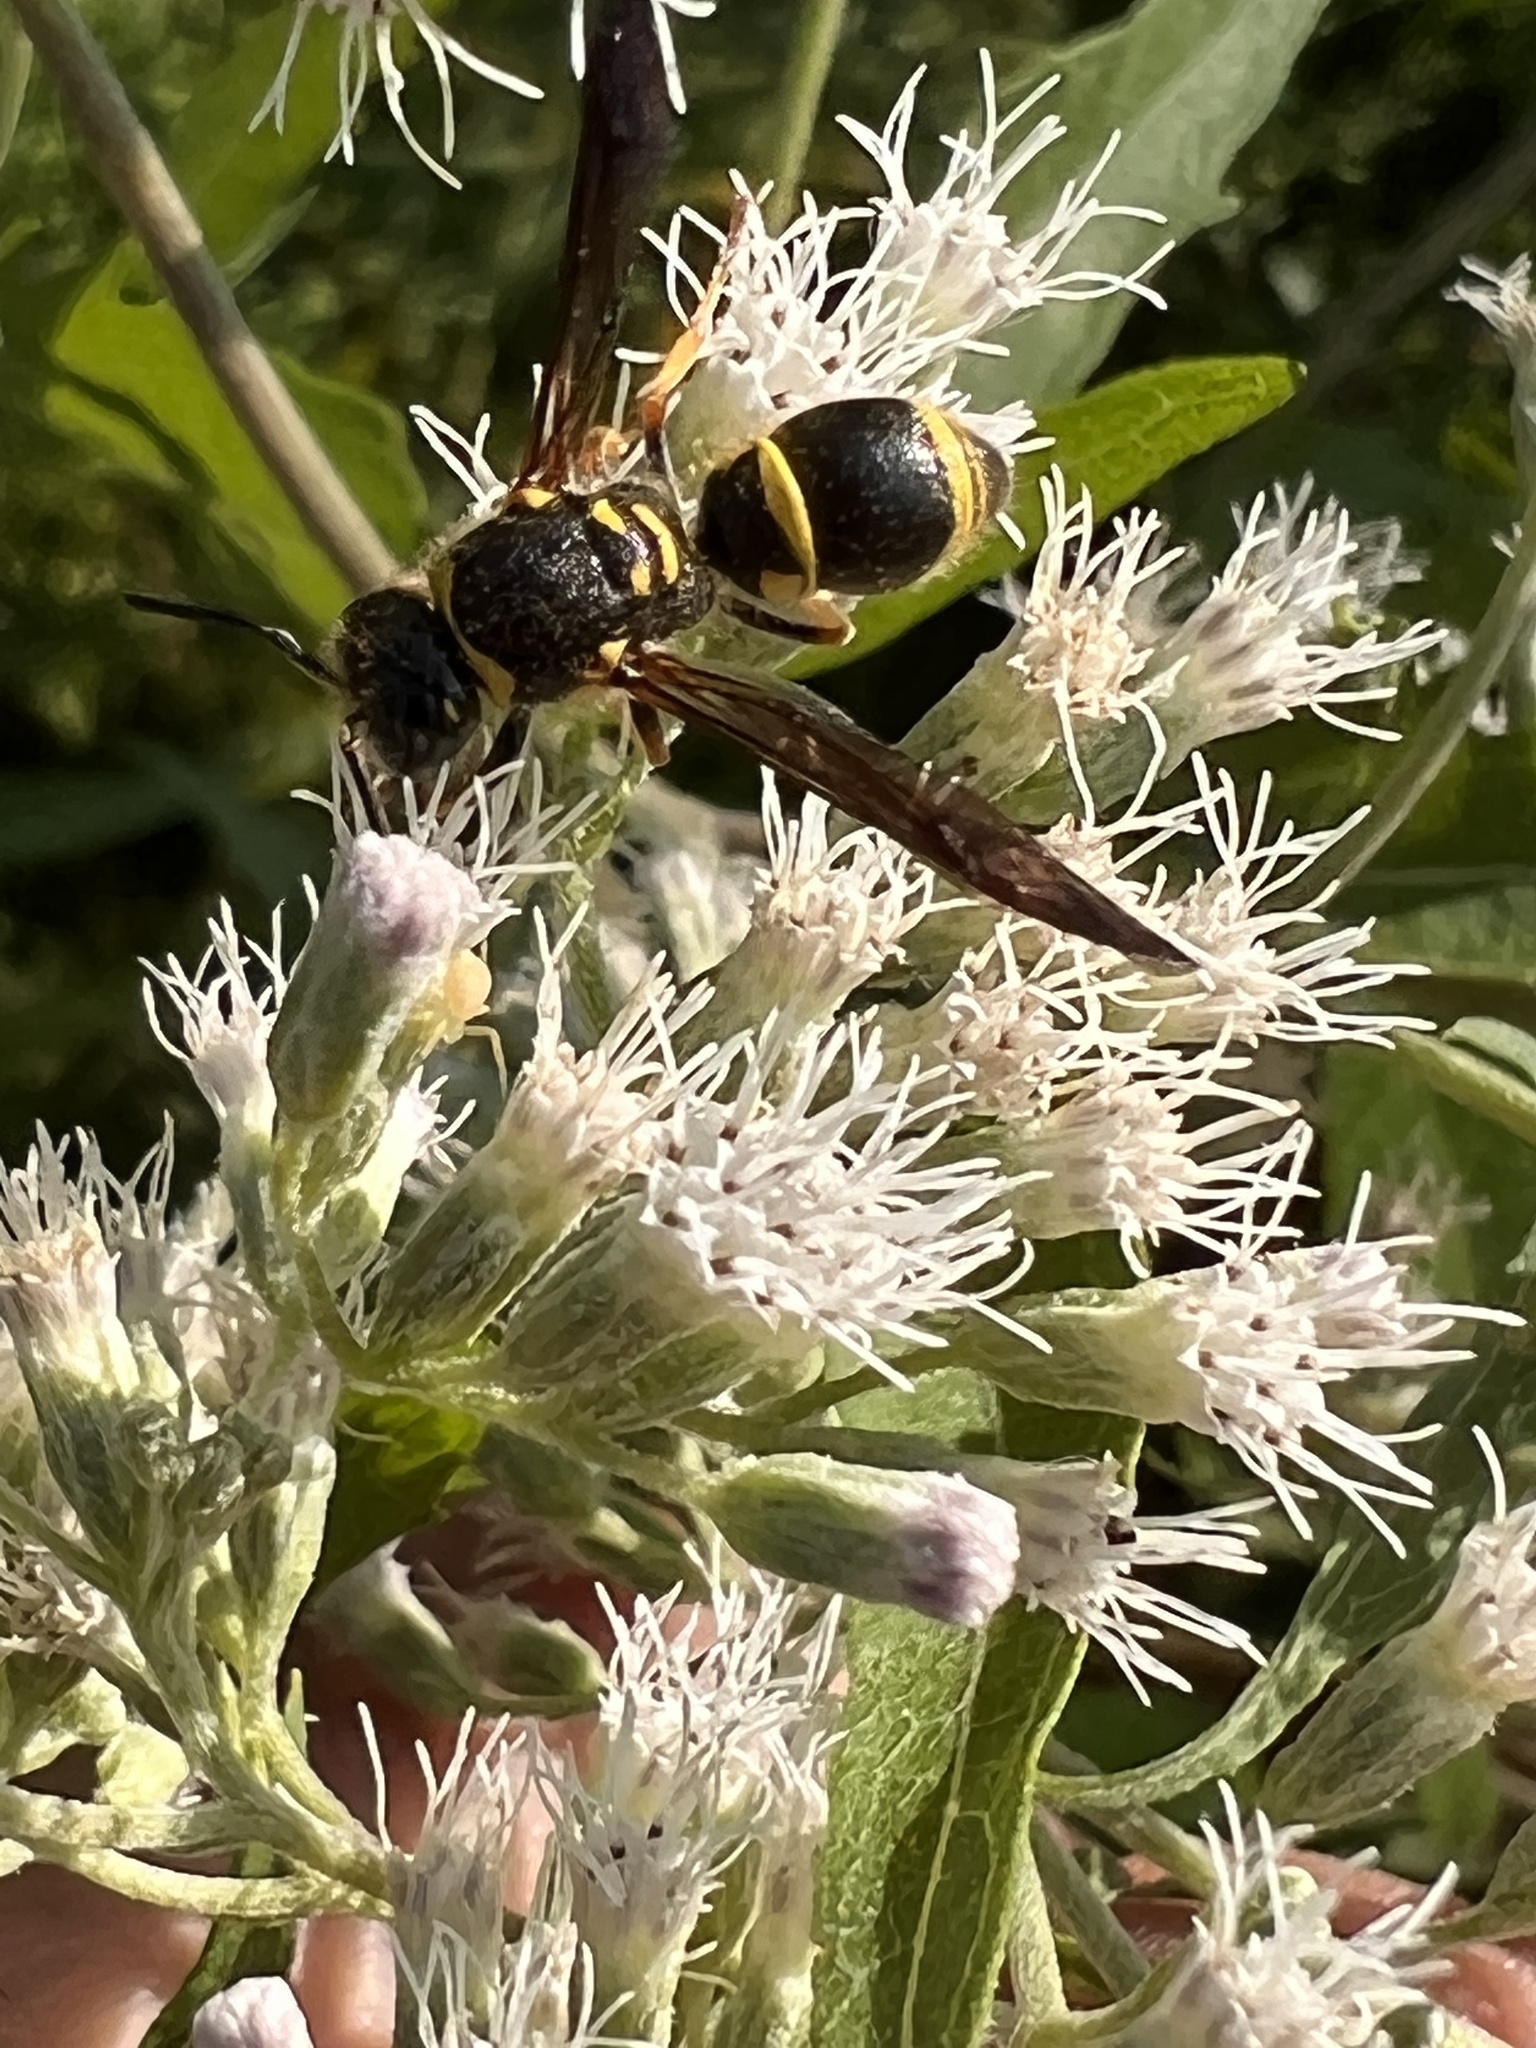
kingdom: Animalia
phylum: Arthropoda
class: Insecta
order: Hymenoptera
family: Vespidae
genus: Ancistrocerus
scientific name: Ancistrocerus campestris
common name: Smiling mason wasp
